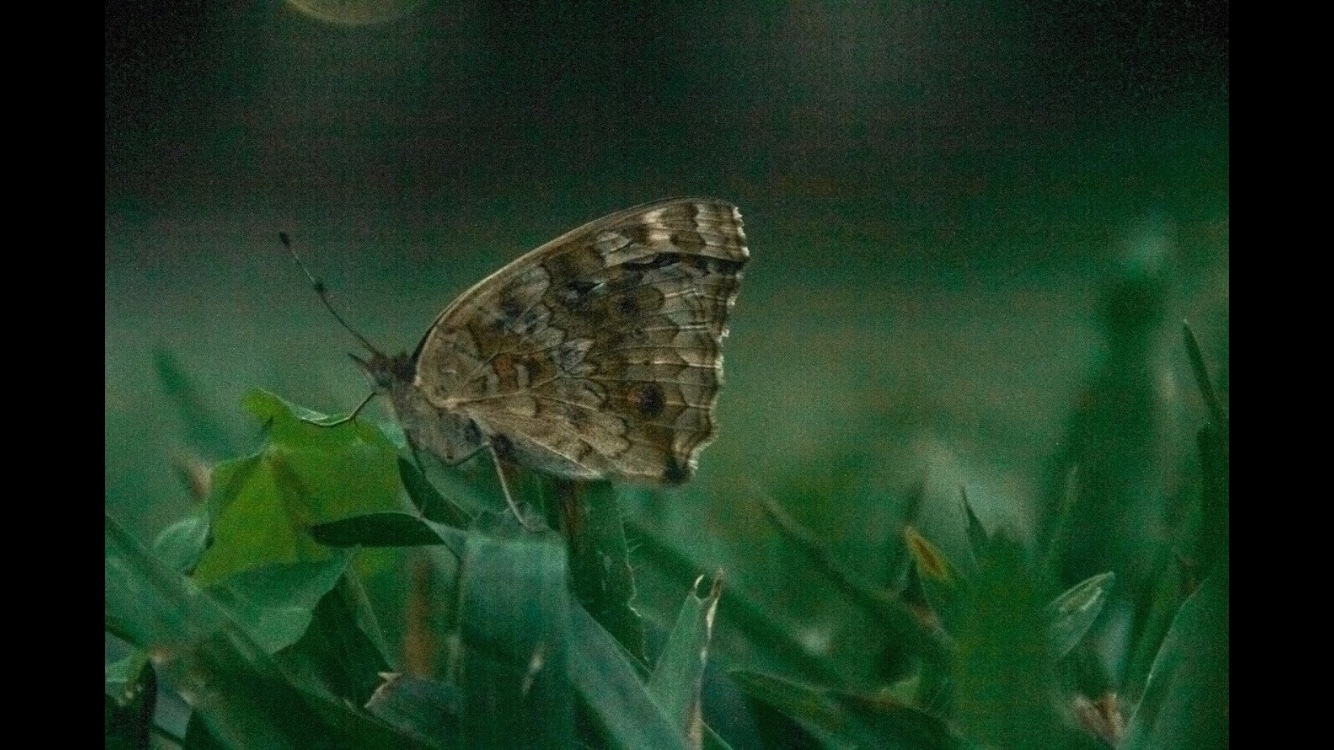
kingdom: Animalia
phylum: Arthropoda
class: Insecta
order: Lepidoptera
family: Nymphalidae
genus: Junonia
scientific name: Junonia orithya
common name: Blue pansy
